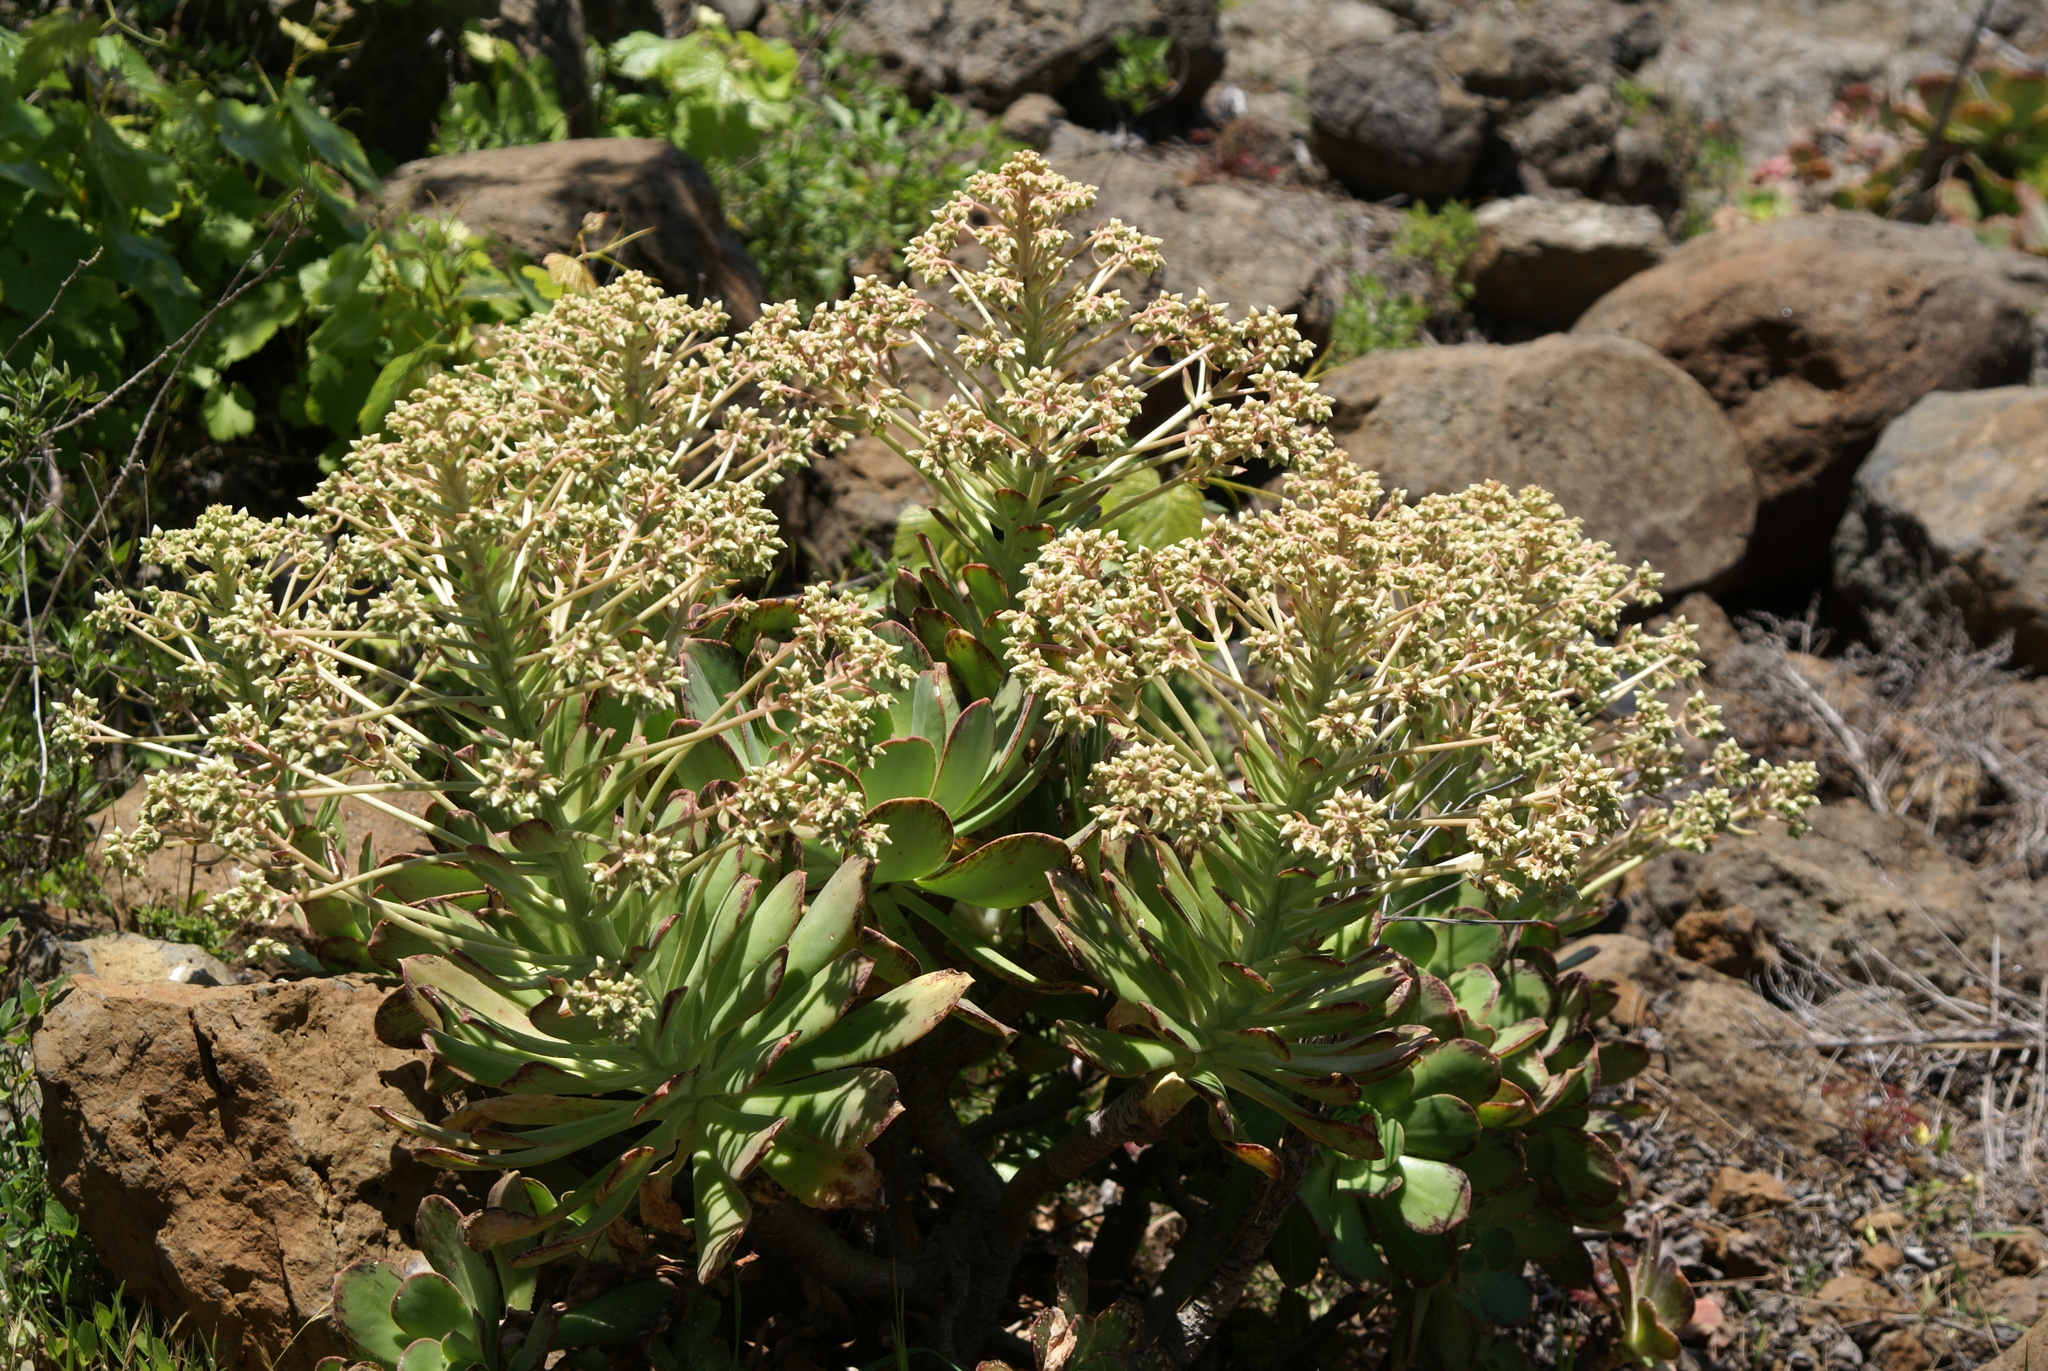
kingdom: Plantae
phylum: Tracheophyta
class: Magnoliopsida
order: Saxifragales
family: Crassulaceae
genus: Aeonium
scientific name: Aeonium davidbramwellii
